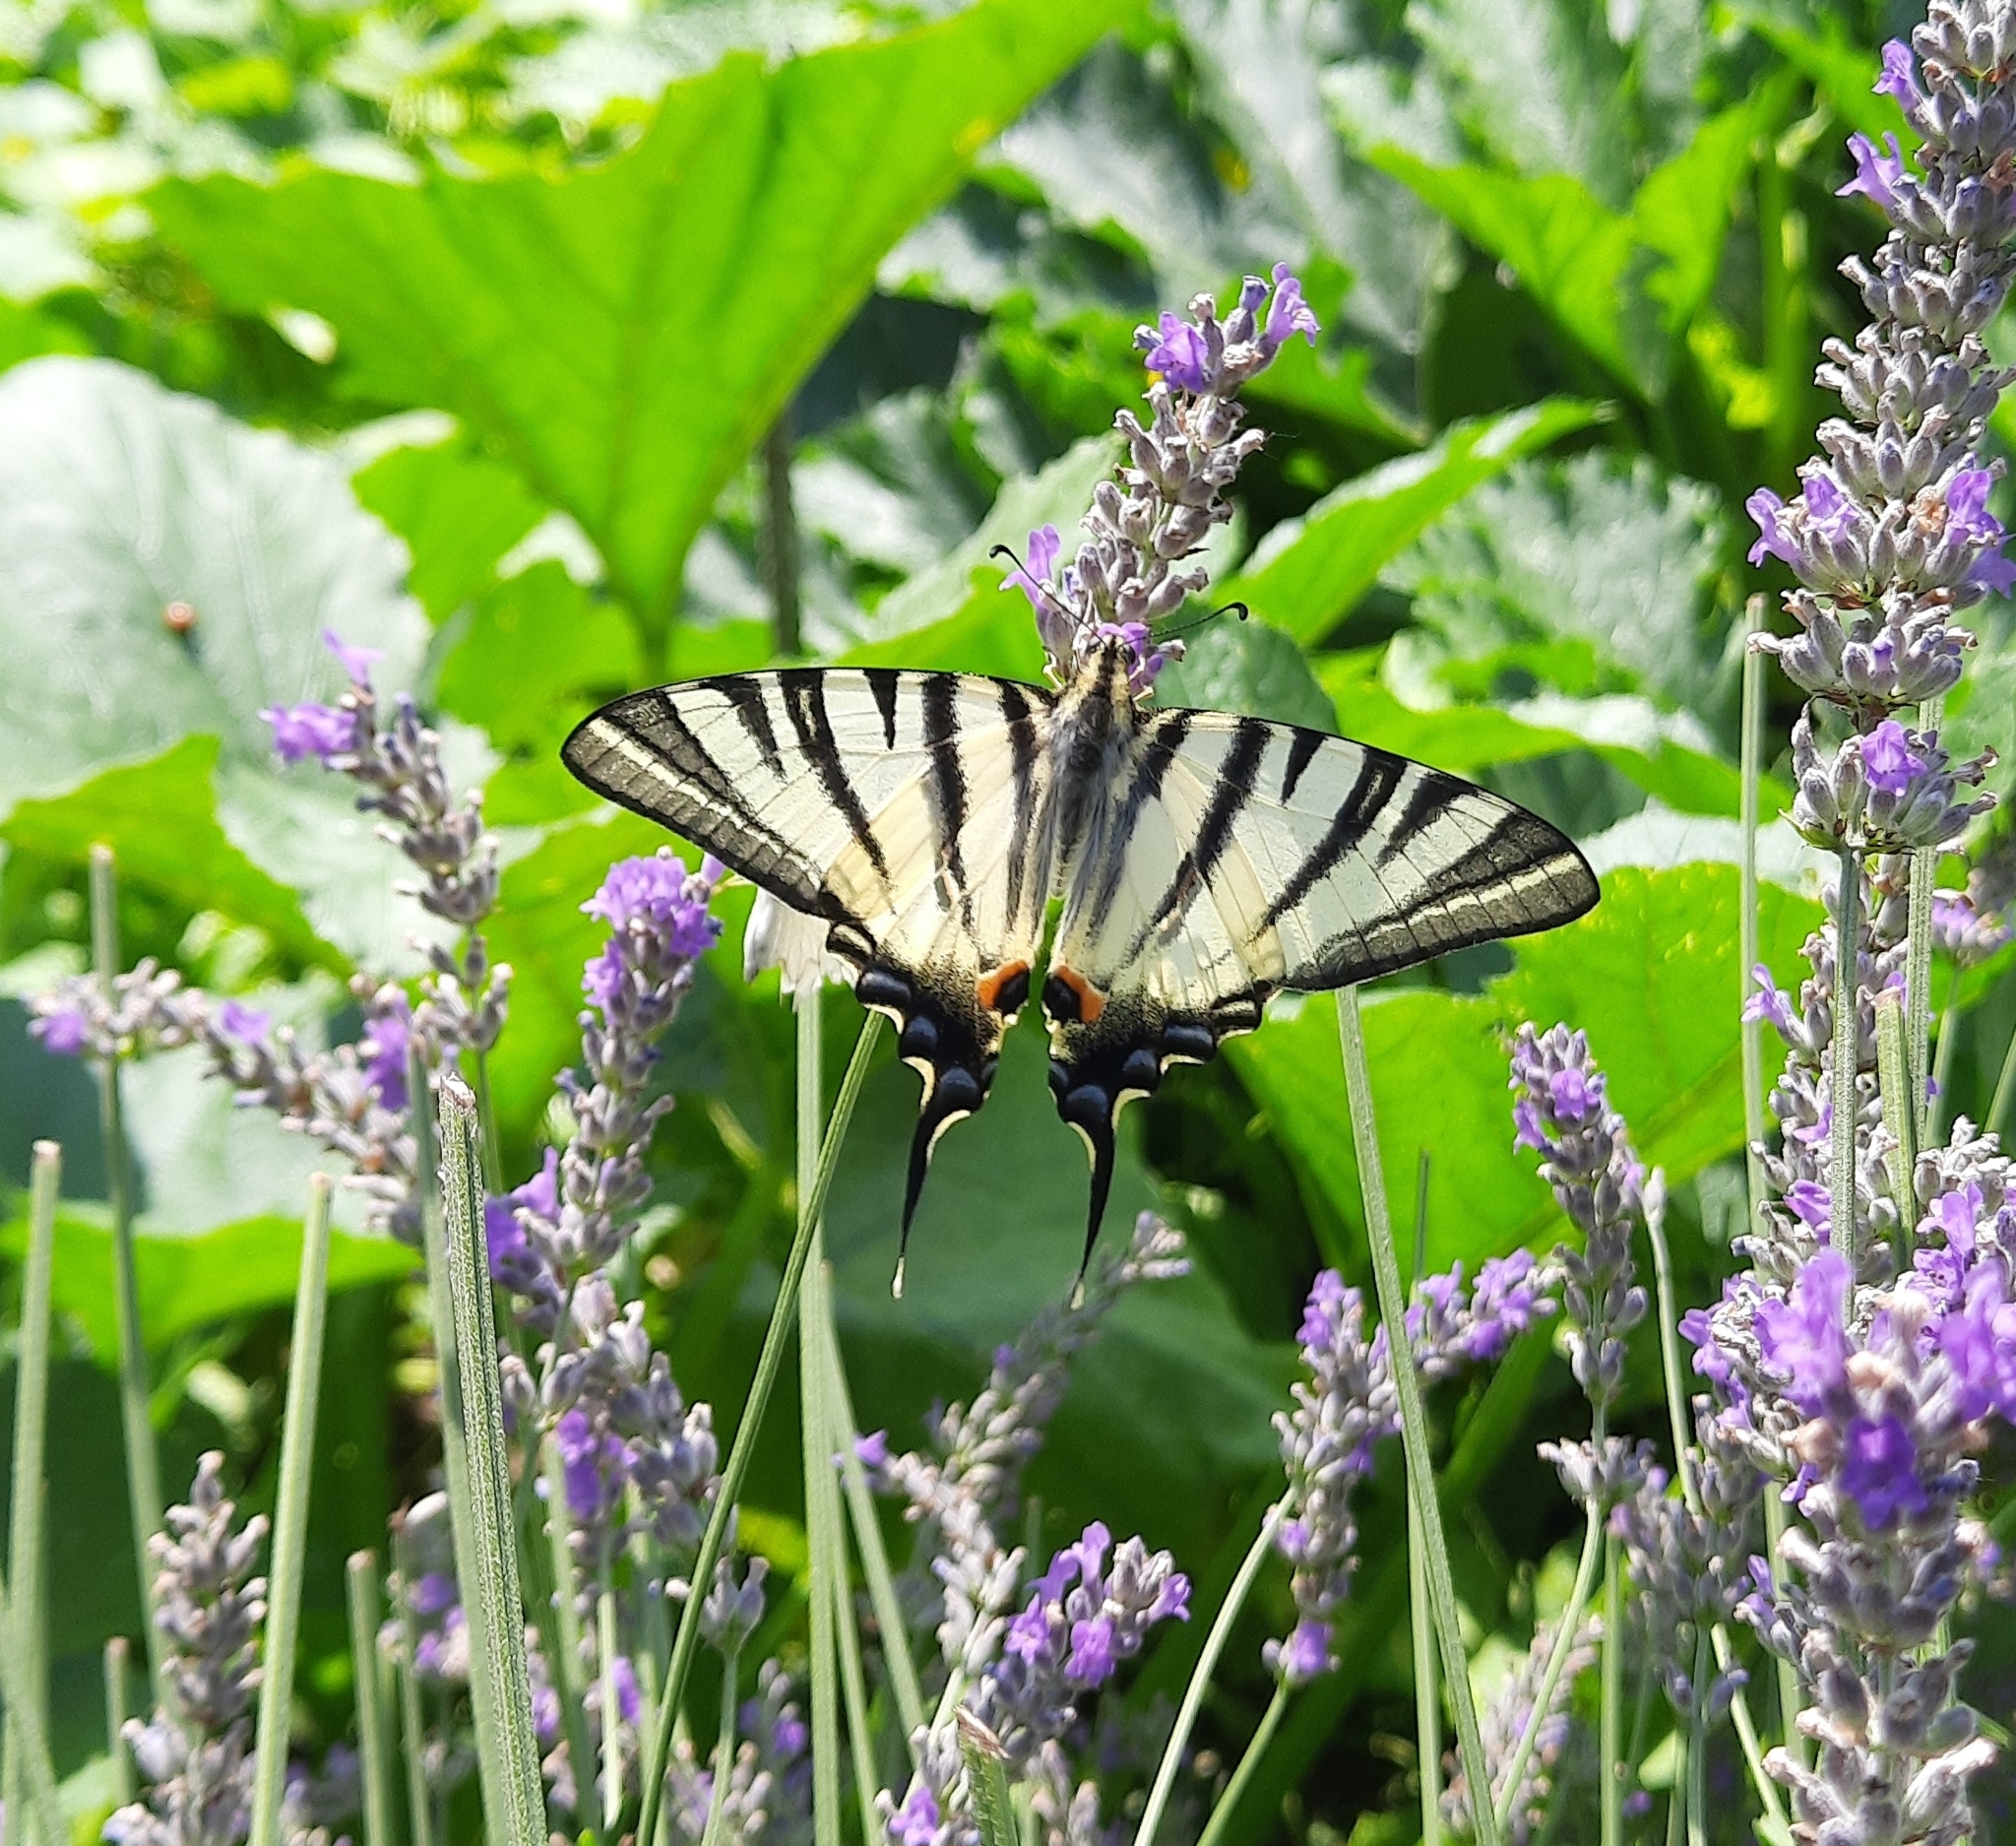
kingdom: Animalia
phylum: Arthropoda
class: Insecta
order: Lepidoptera
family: Papilionidae
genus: Iphiclides
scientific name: Iphiclides podalirius
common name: Scarce swallowtail
